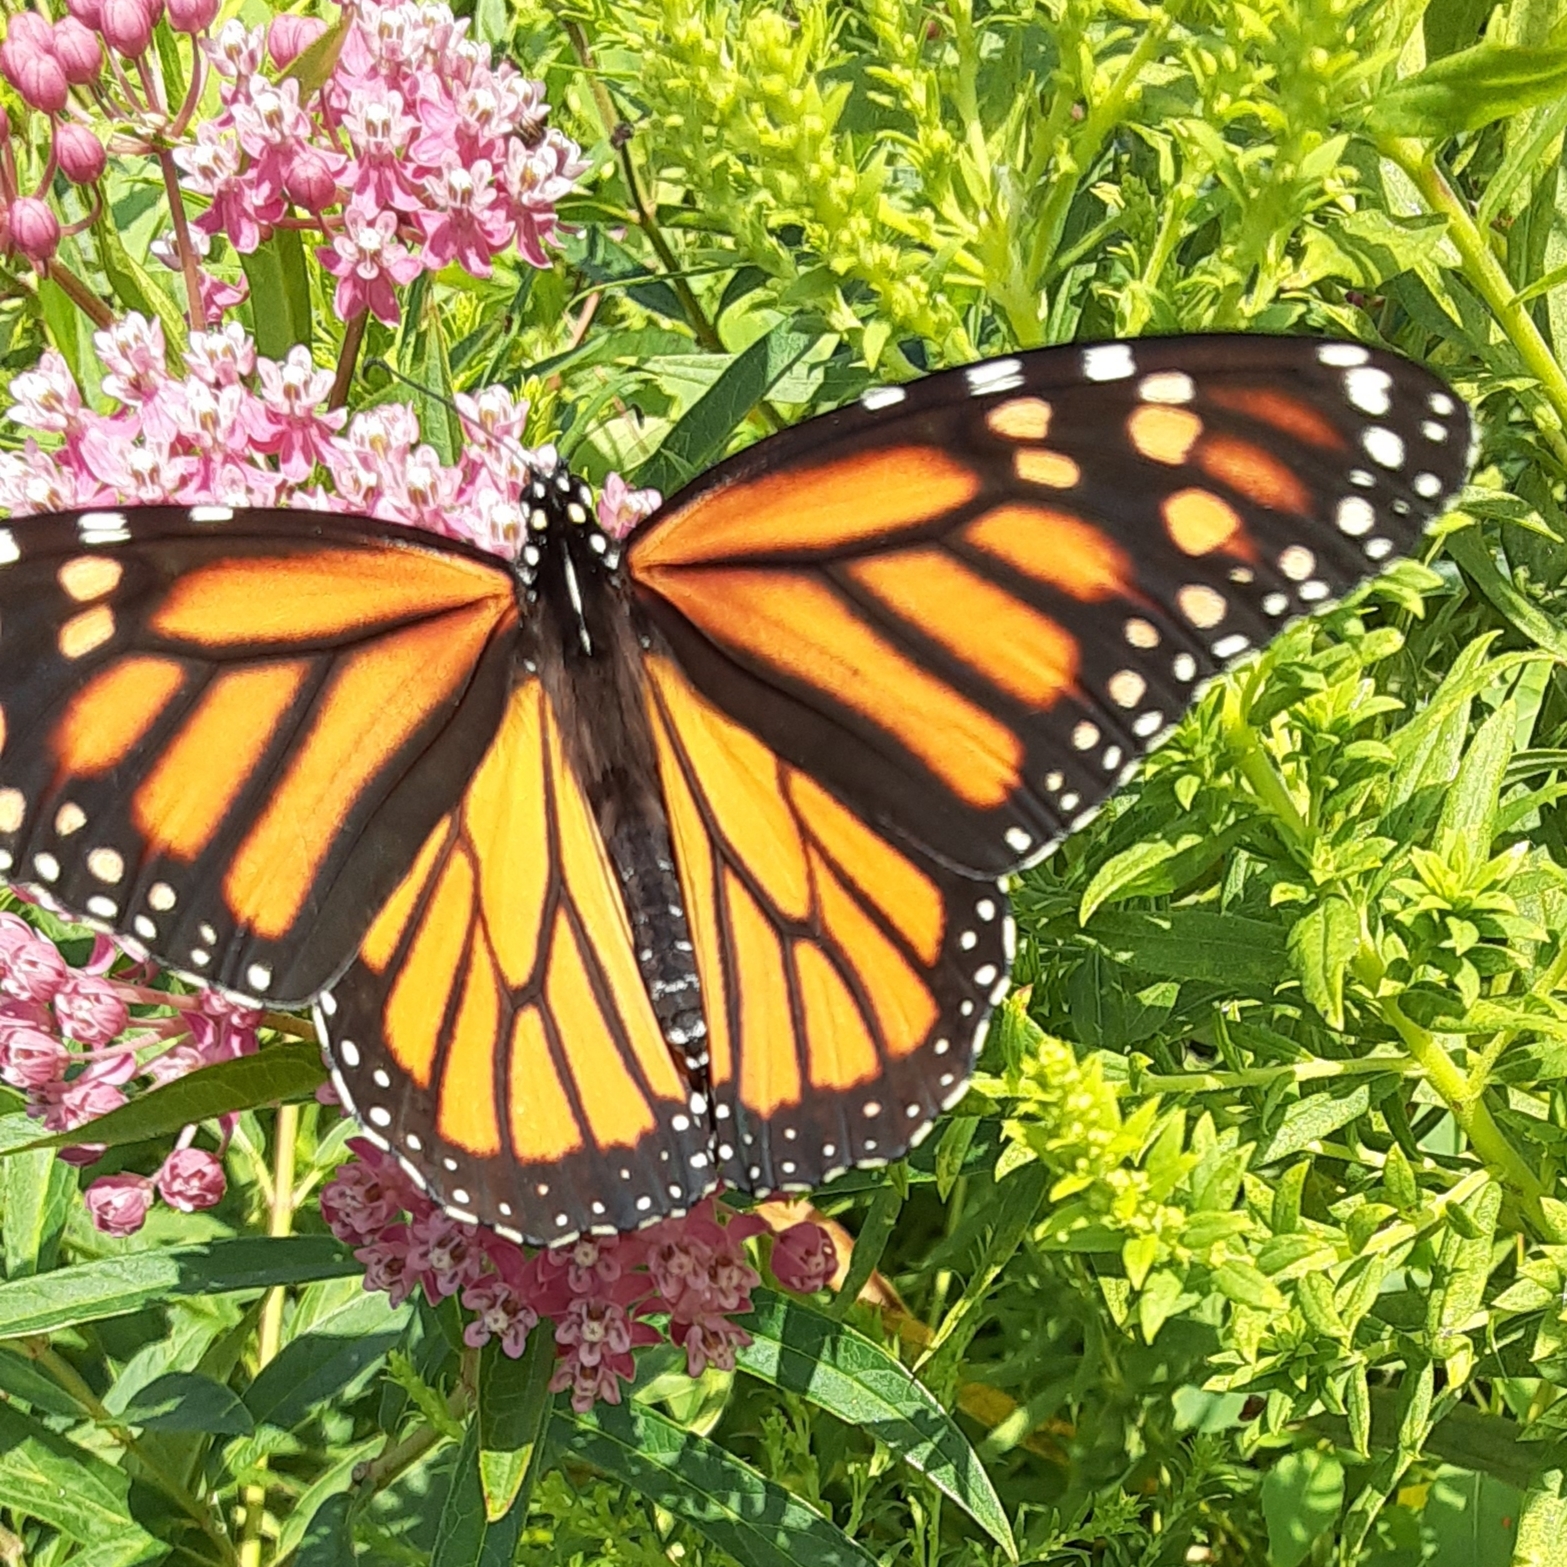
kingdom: Animalia
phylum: Arthropoda
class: Insecta
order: Lepidoptera
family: Nymphalidae
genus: Danaus
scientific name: Danaus plexippus
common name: Monarch
